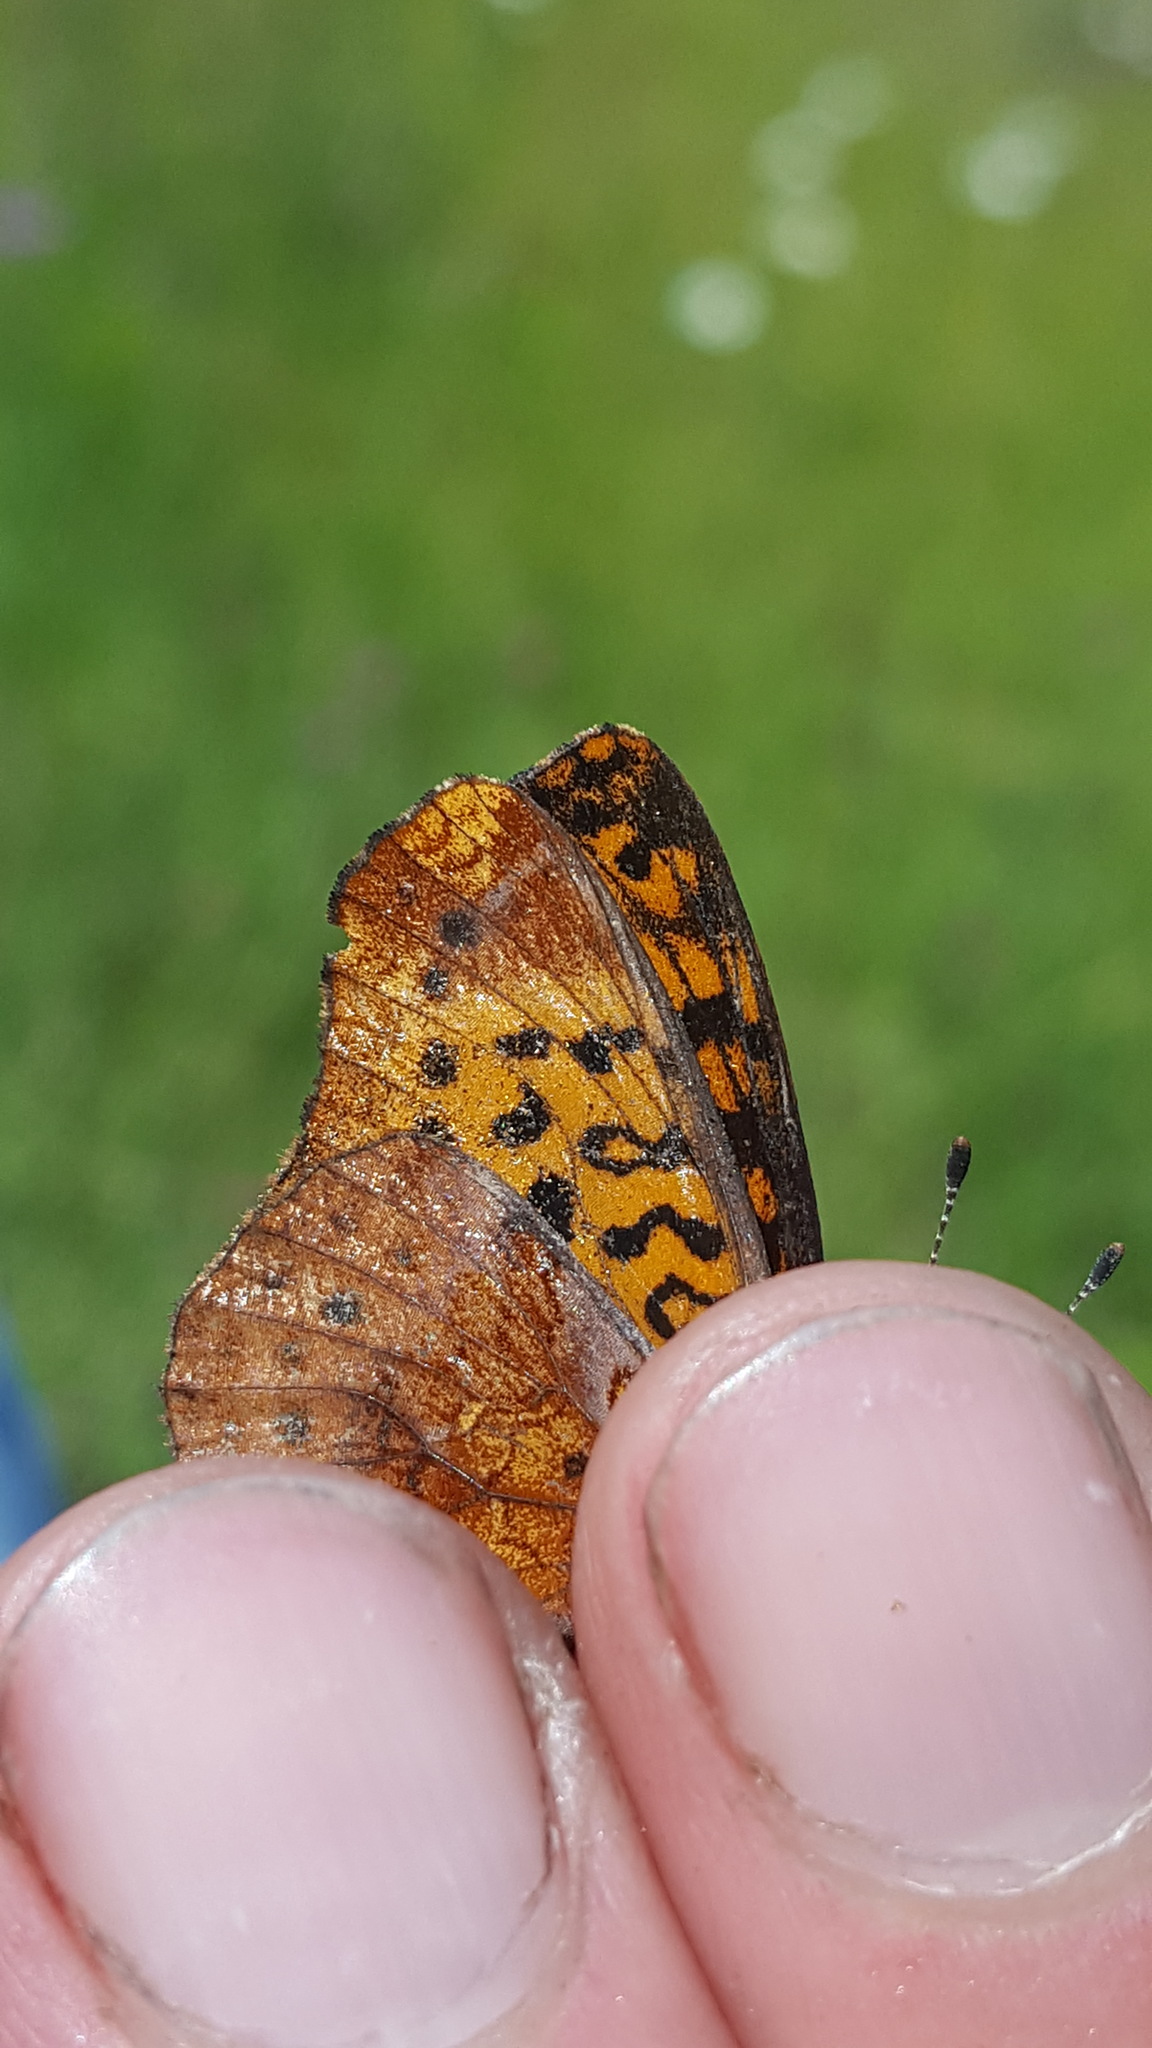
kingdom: Animalia
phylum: Arthropoda
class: Insecta
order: Lepidoptera
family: Nymphalidae
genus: Clossiana
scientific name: Clossiana toddi
